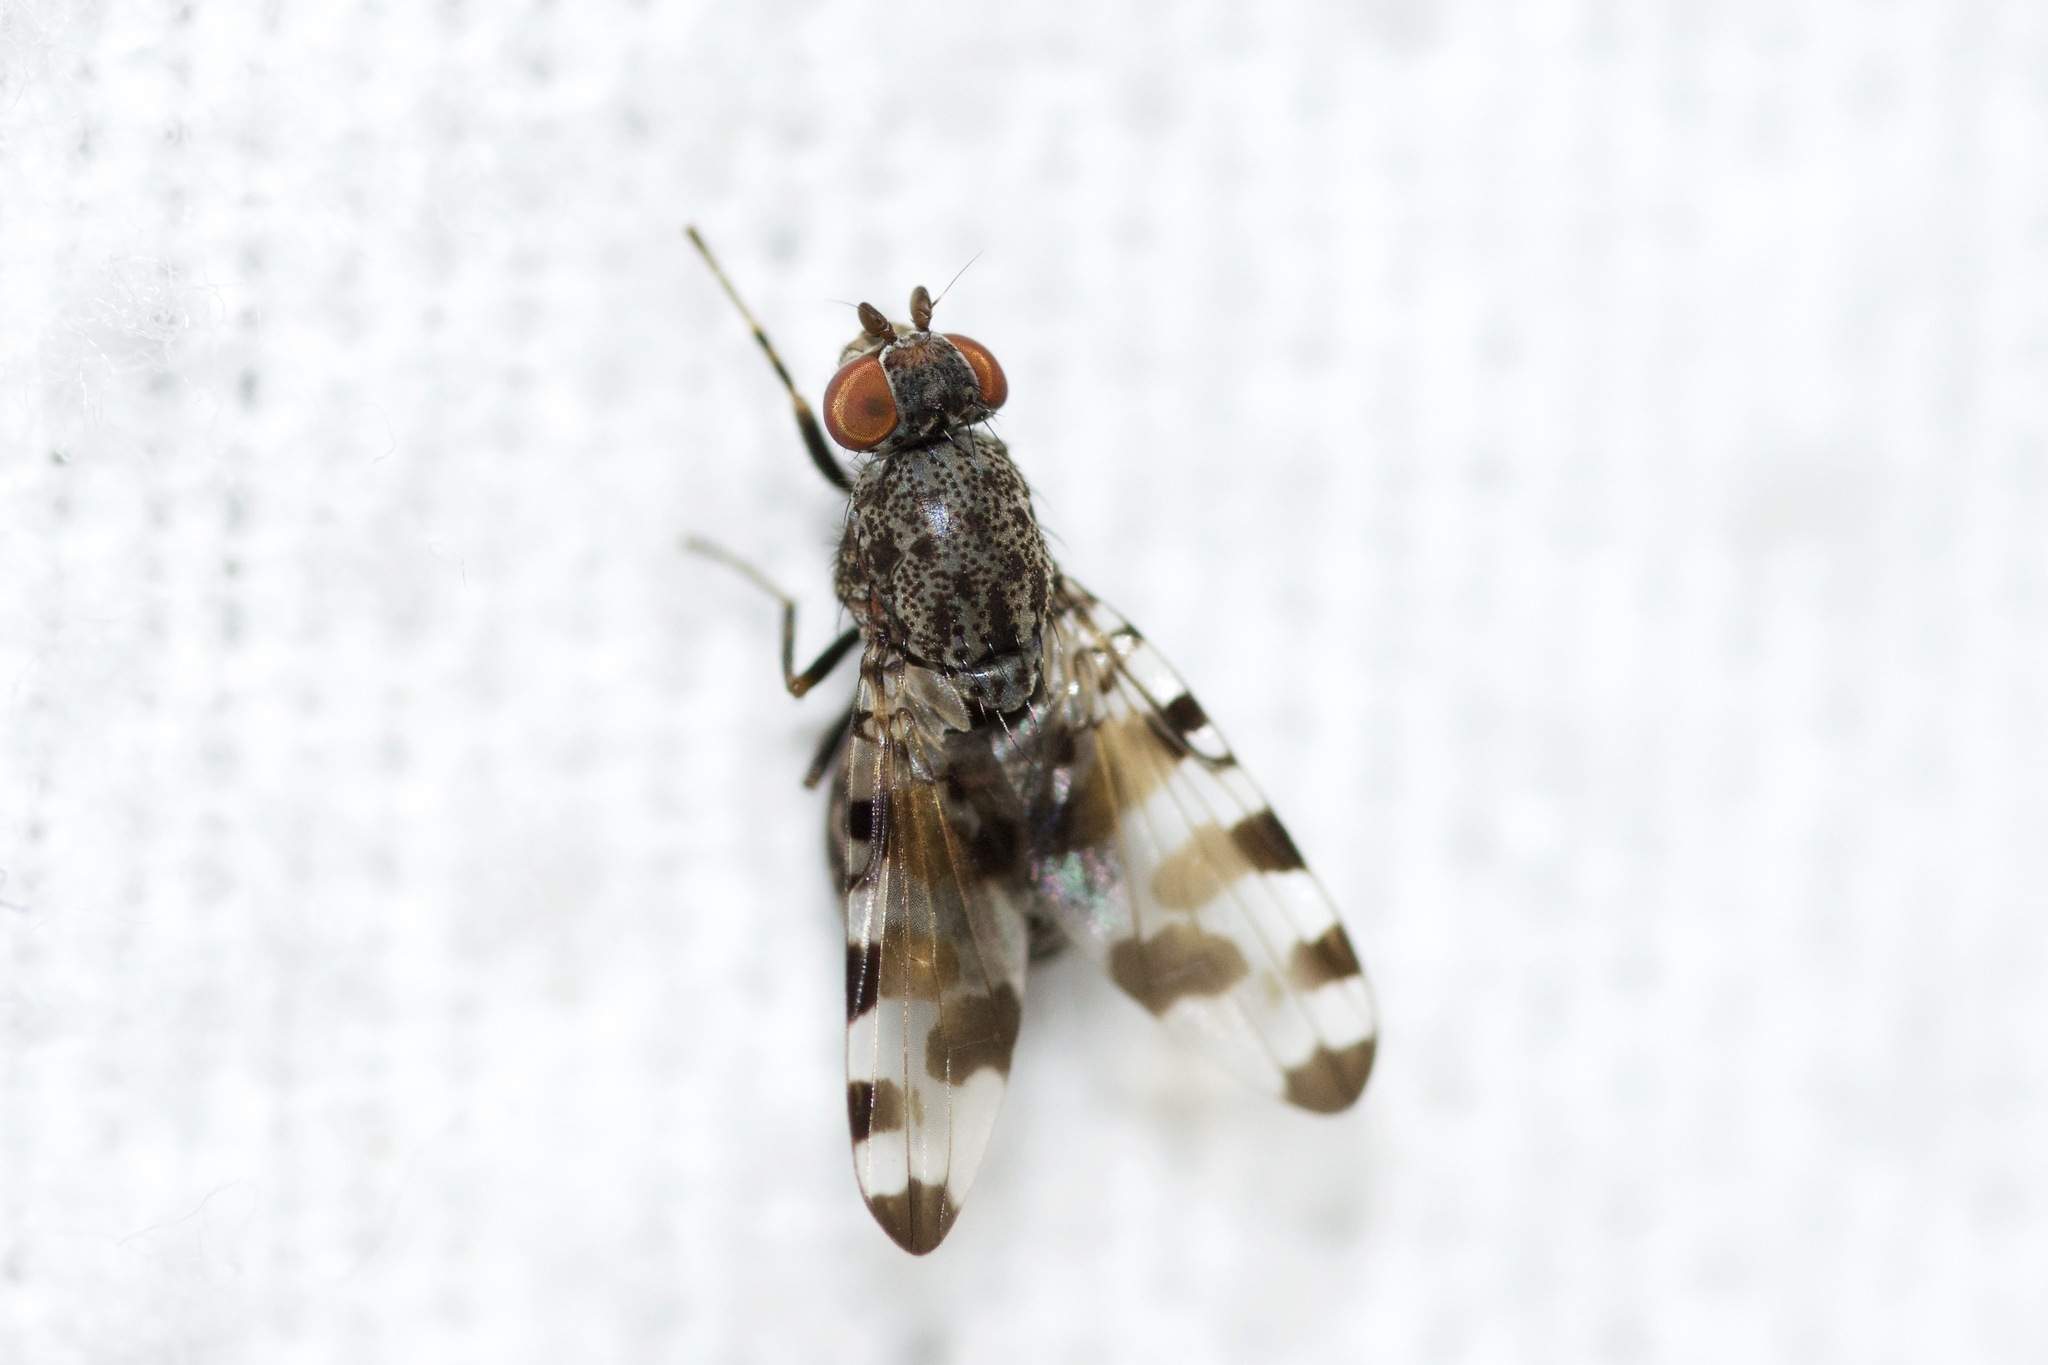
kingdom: Animalia
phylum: Arthropoda
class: Insecta
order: Diptera
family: Ulidiidae
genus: Pseudotephritis
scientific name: Pseudotephritis vau
